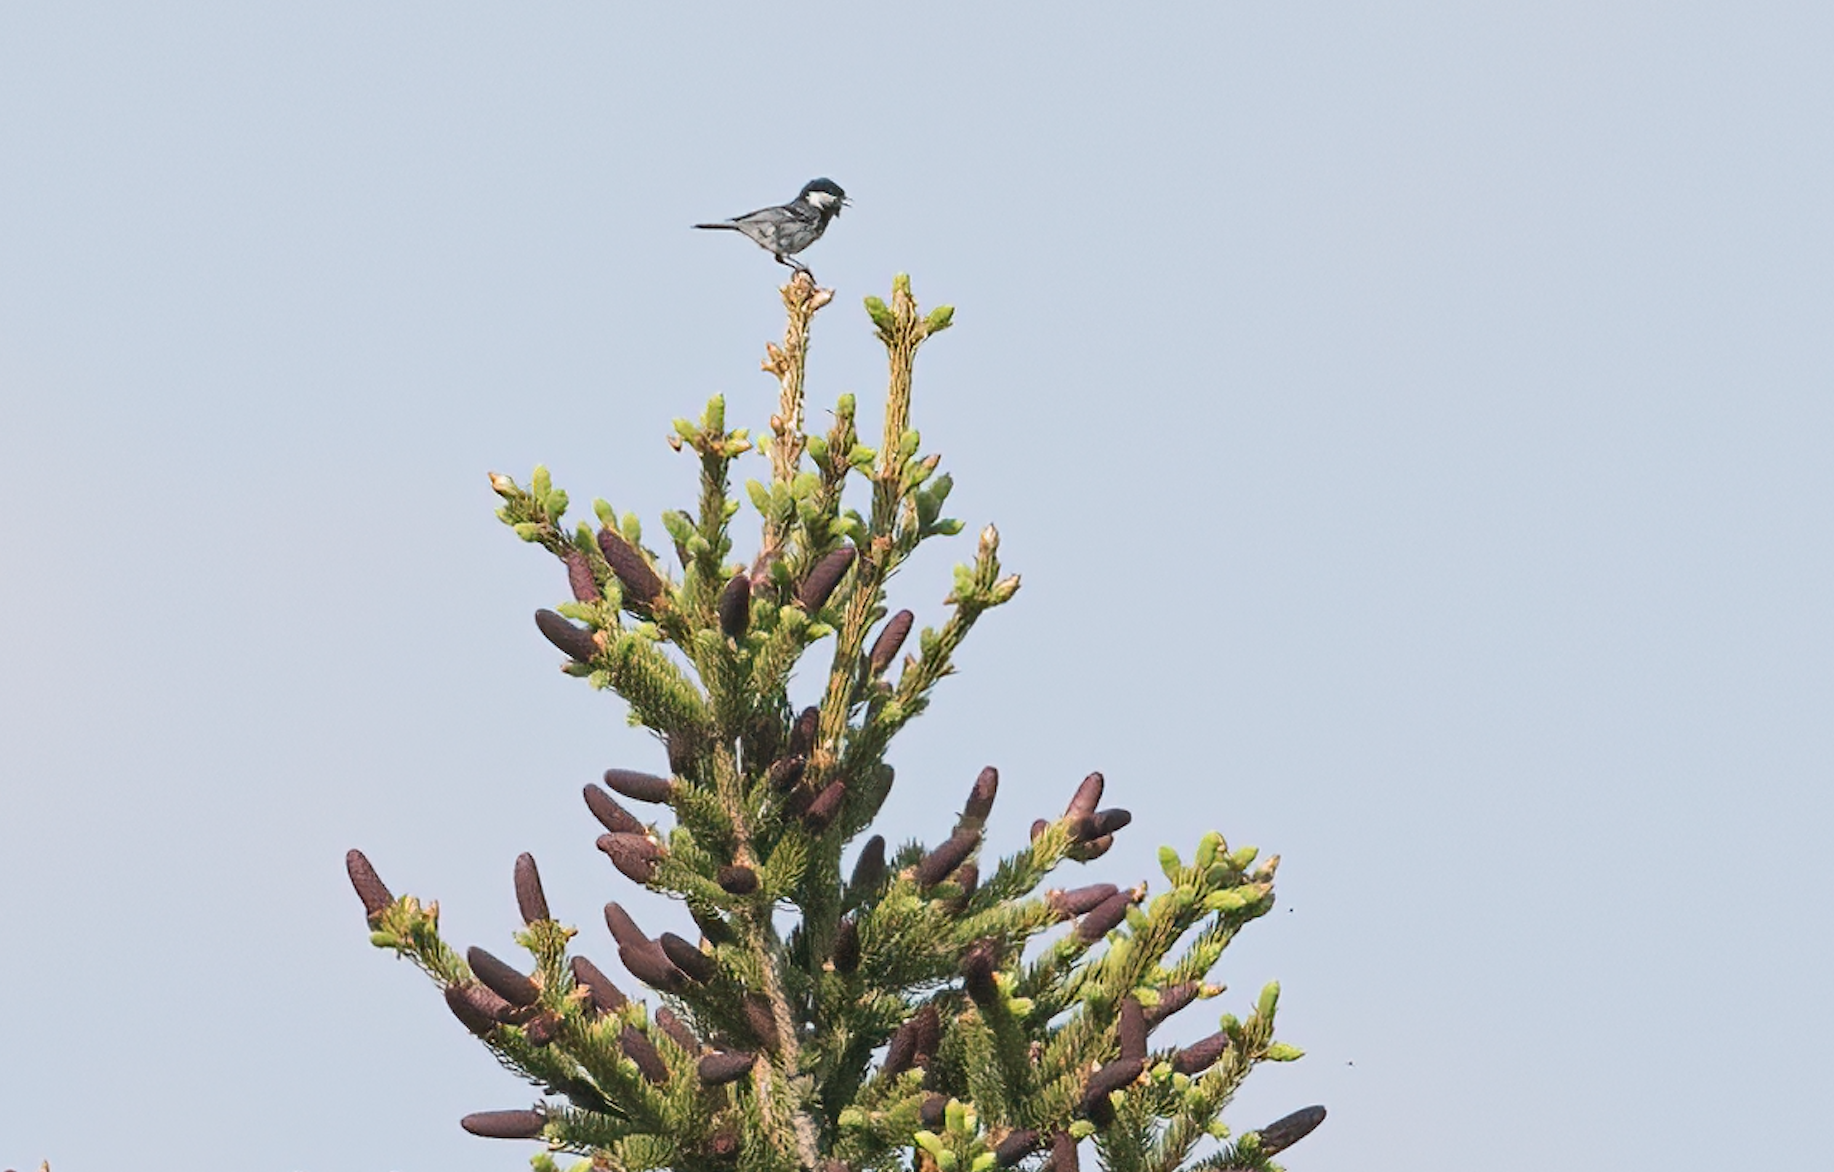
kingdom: Animalia
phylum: Chordata
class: Aves
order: Passeriformes
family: Paridae
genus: Periparus
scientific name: Periparus ater
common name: Coal tit
